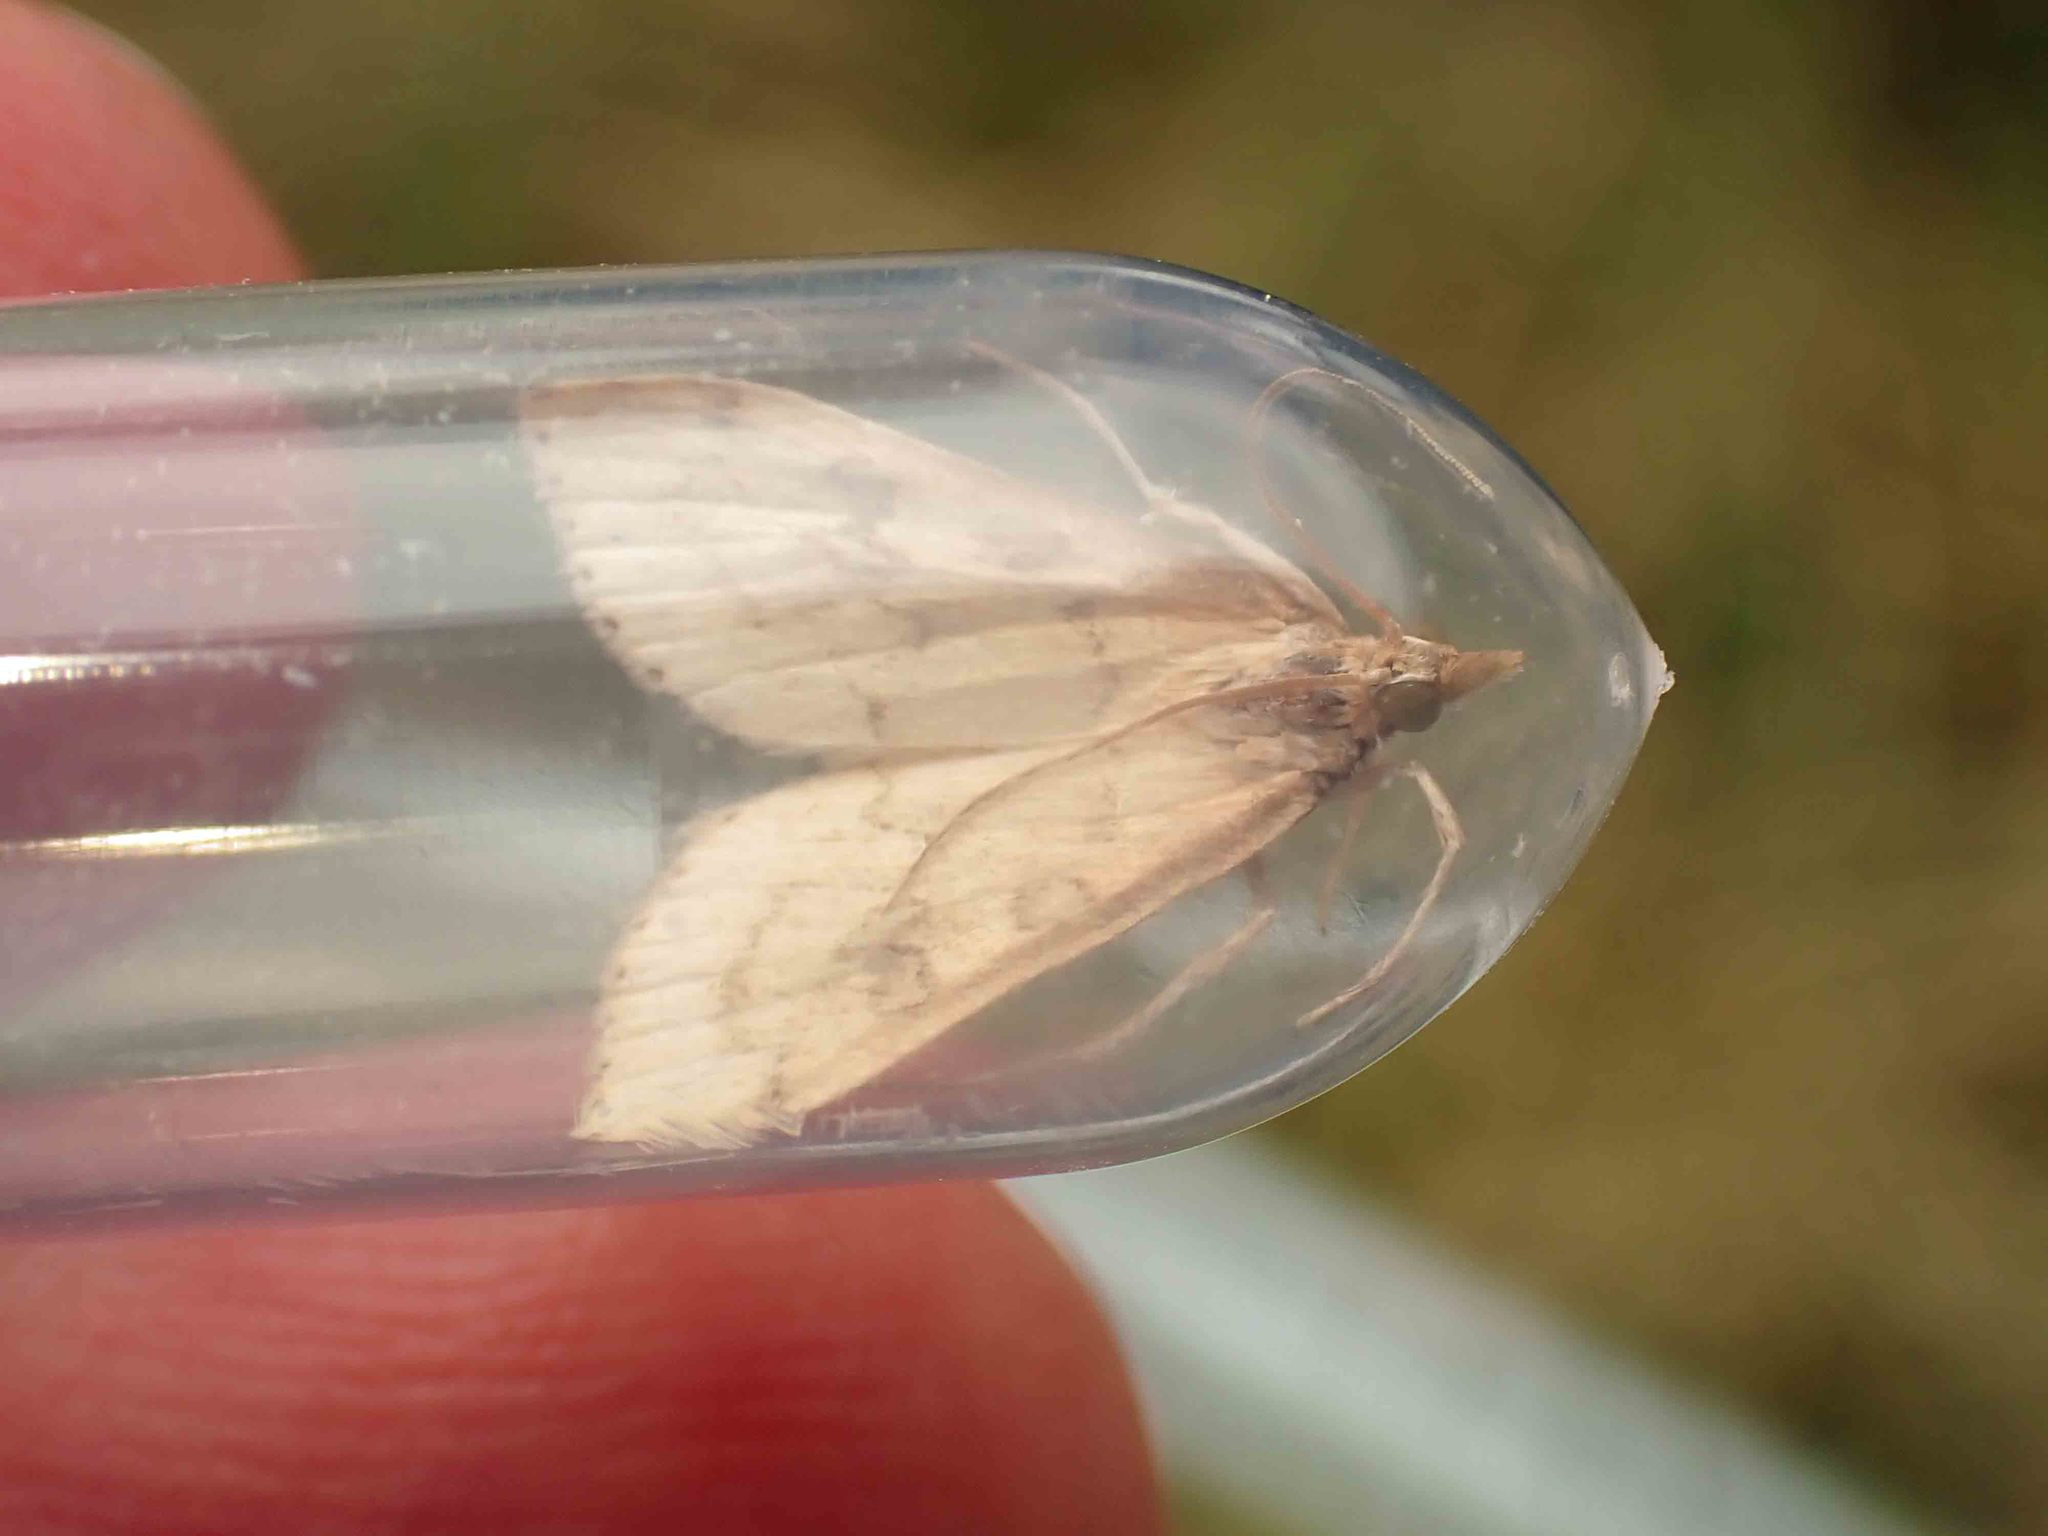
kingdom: Animalia
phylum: Arthropoda
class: Insecta
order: Lepidoptera
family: Crambidae
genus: Udea
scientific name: Udea rubigalis
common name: Celery leaftier moth
